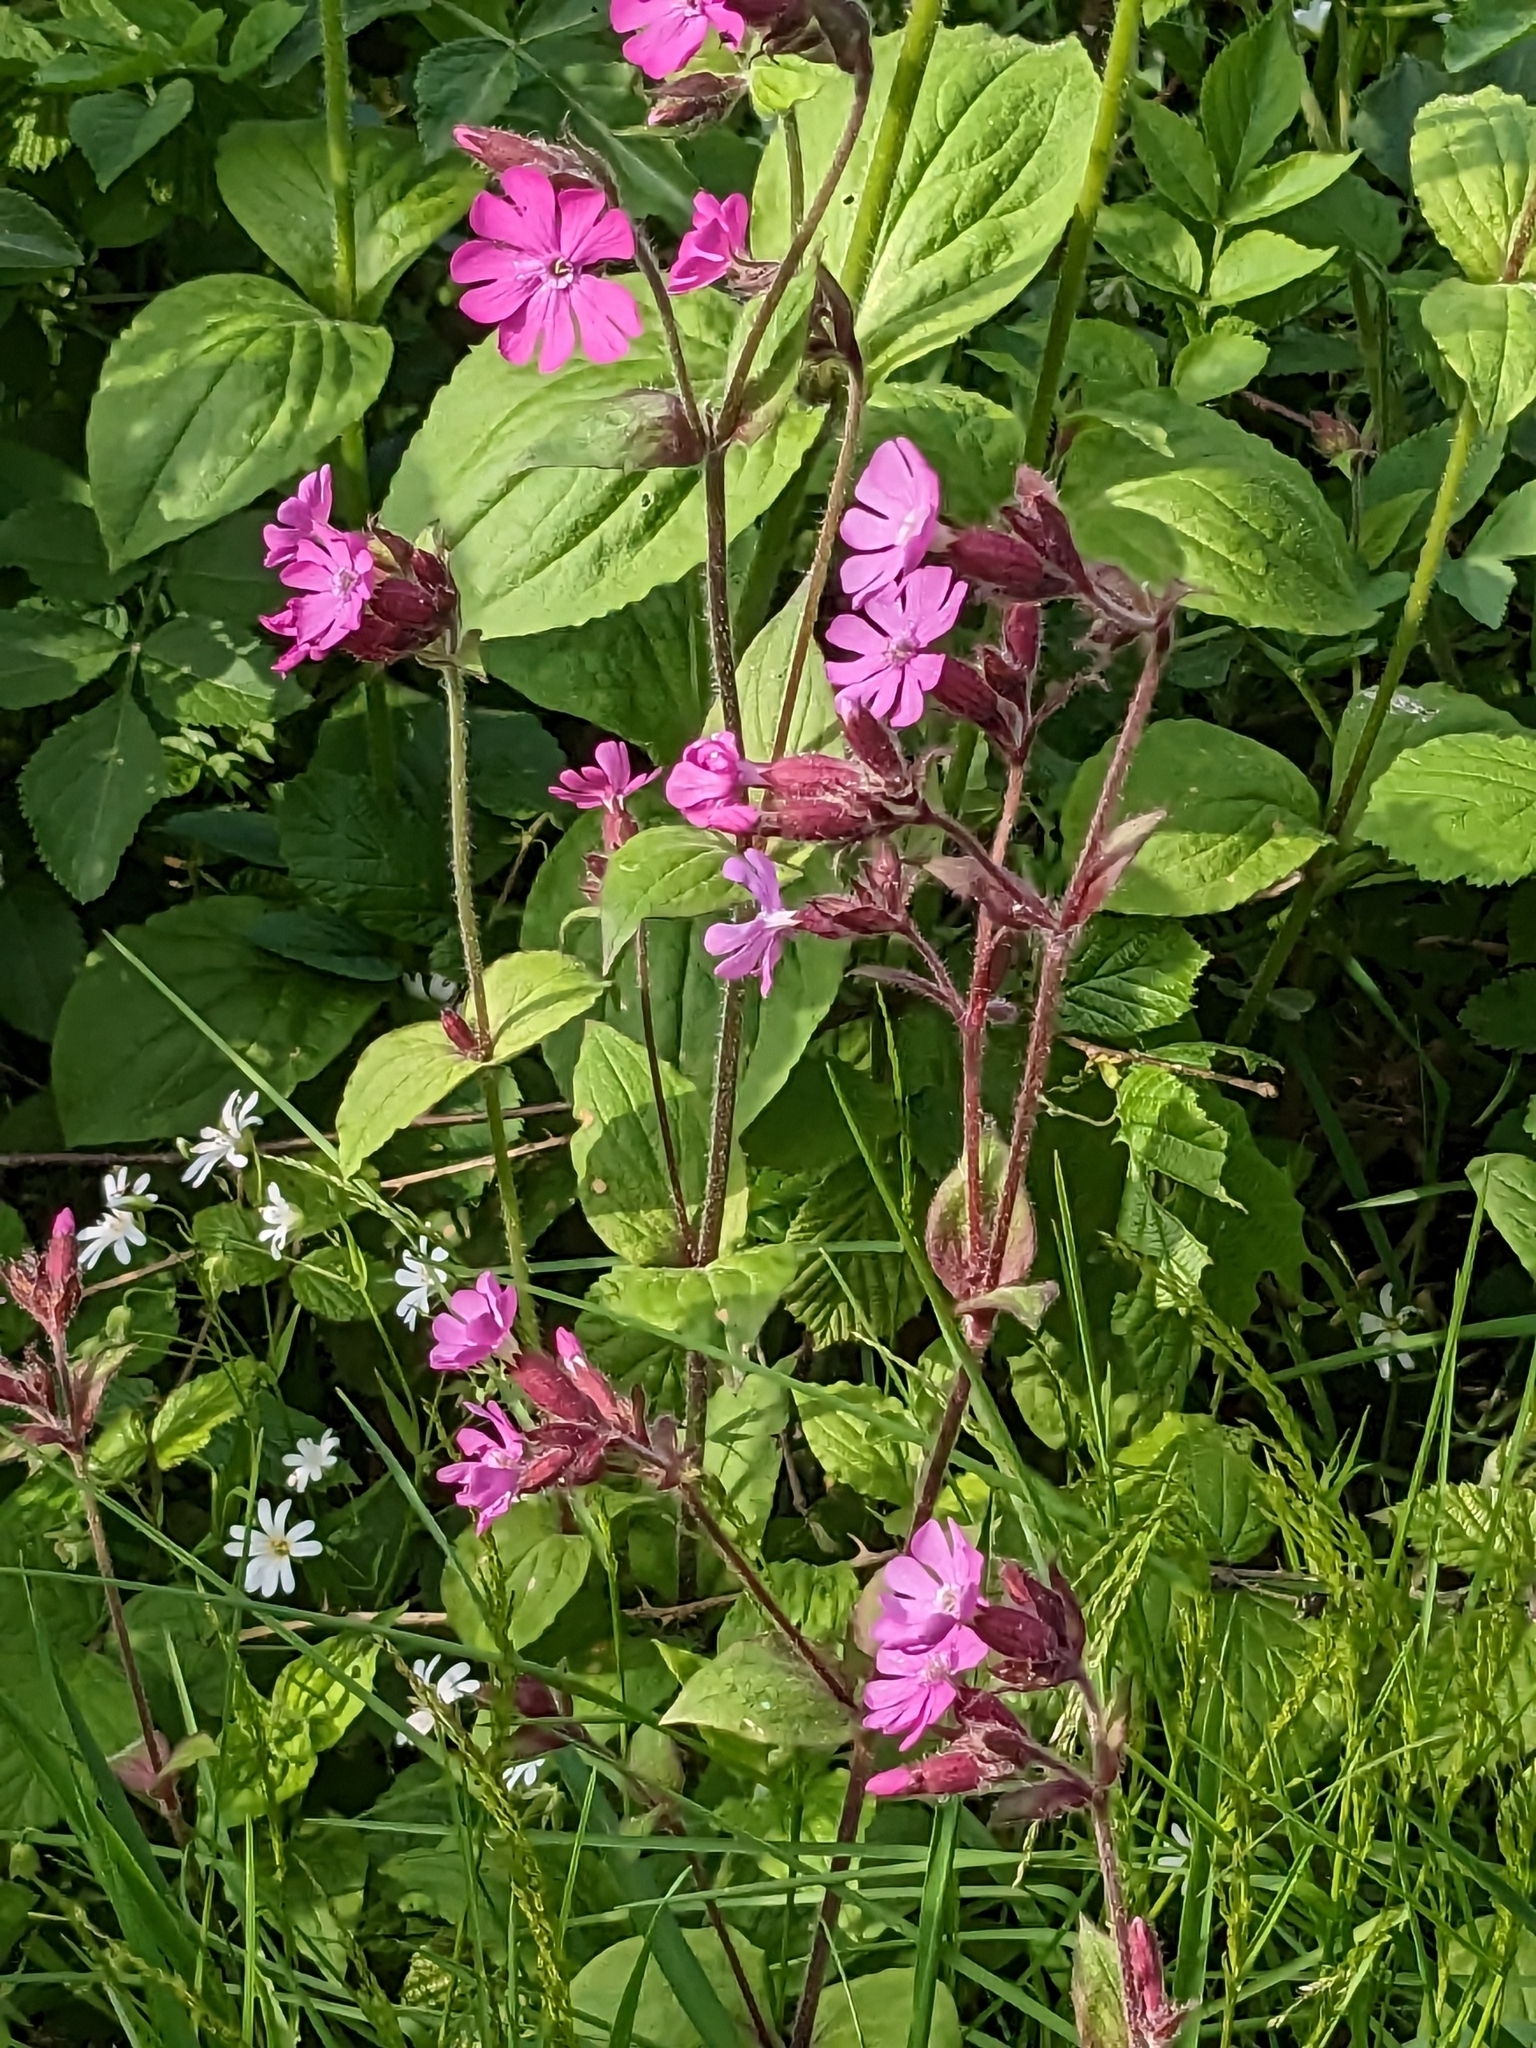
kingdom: Plantae
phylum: Tracheophyta
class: Magnoliopsida
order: Caryophyllales
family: Caryophyllaceae
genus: Silene
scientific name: Silene dioica
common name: Red campion
